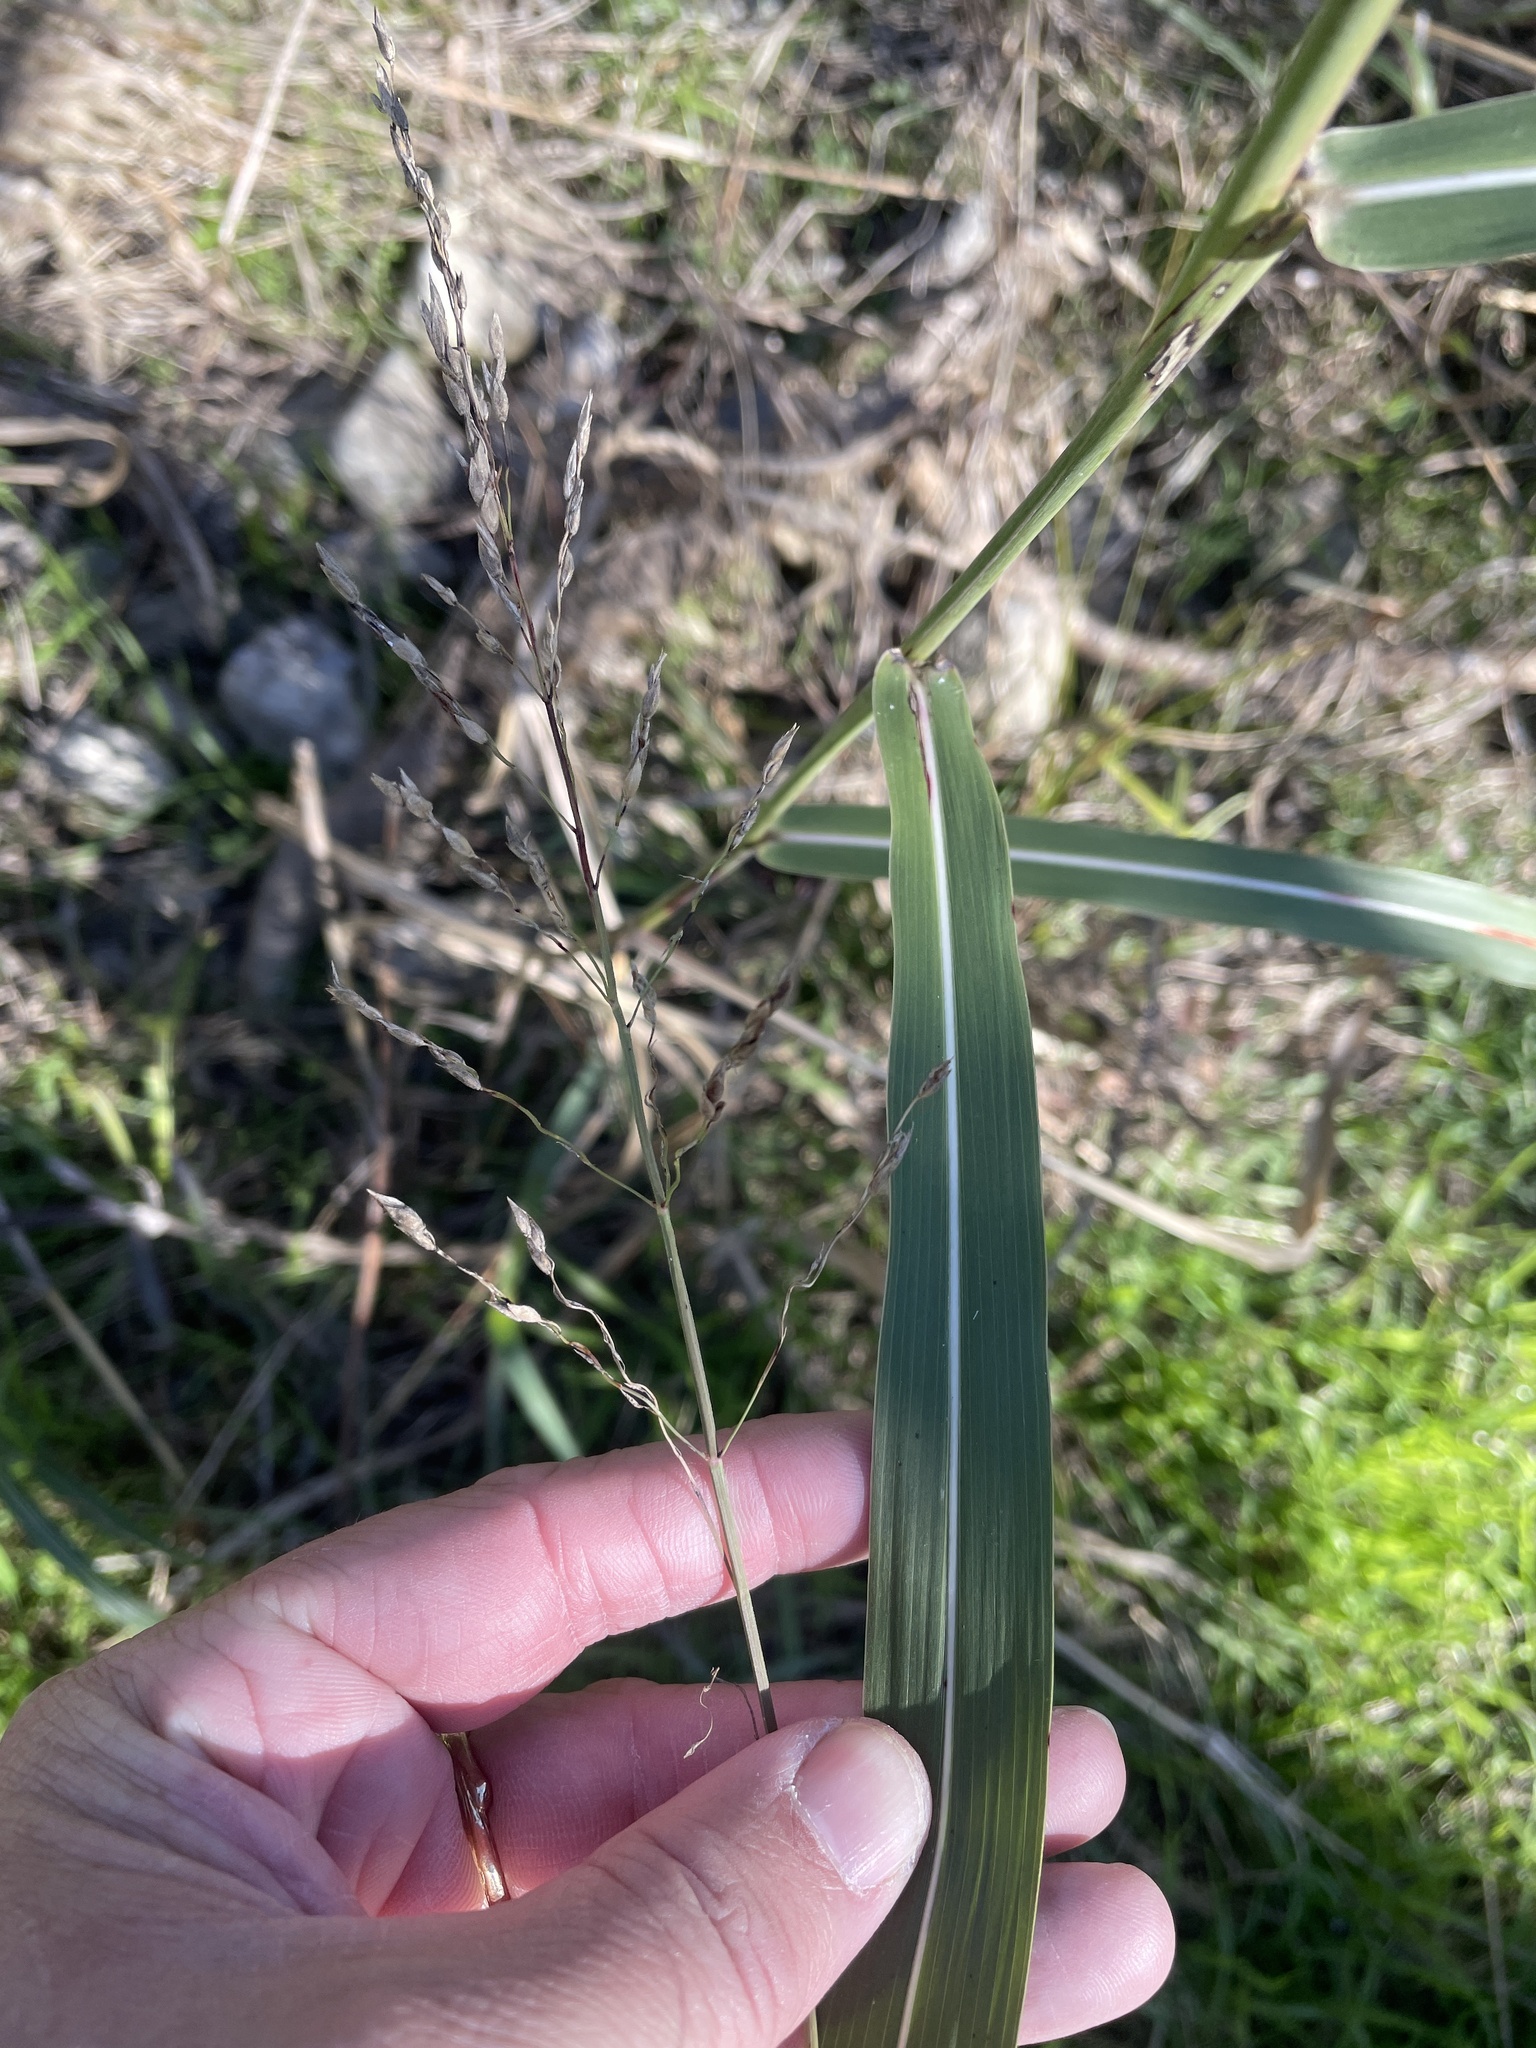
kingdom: Plantae
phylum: Tracheophyta
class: Liliopsida
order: Poales
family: Poaceae
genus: Sorghum
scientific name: Sorghum halepense
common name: Johnson-grass
